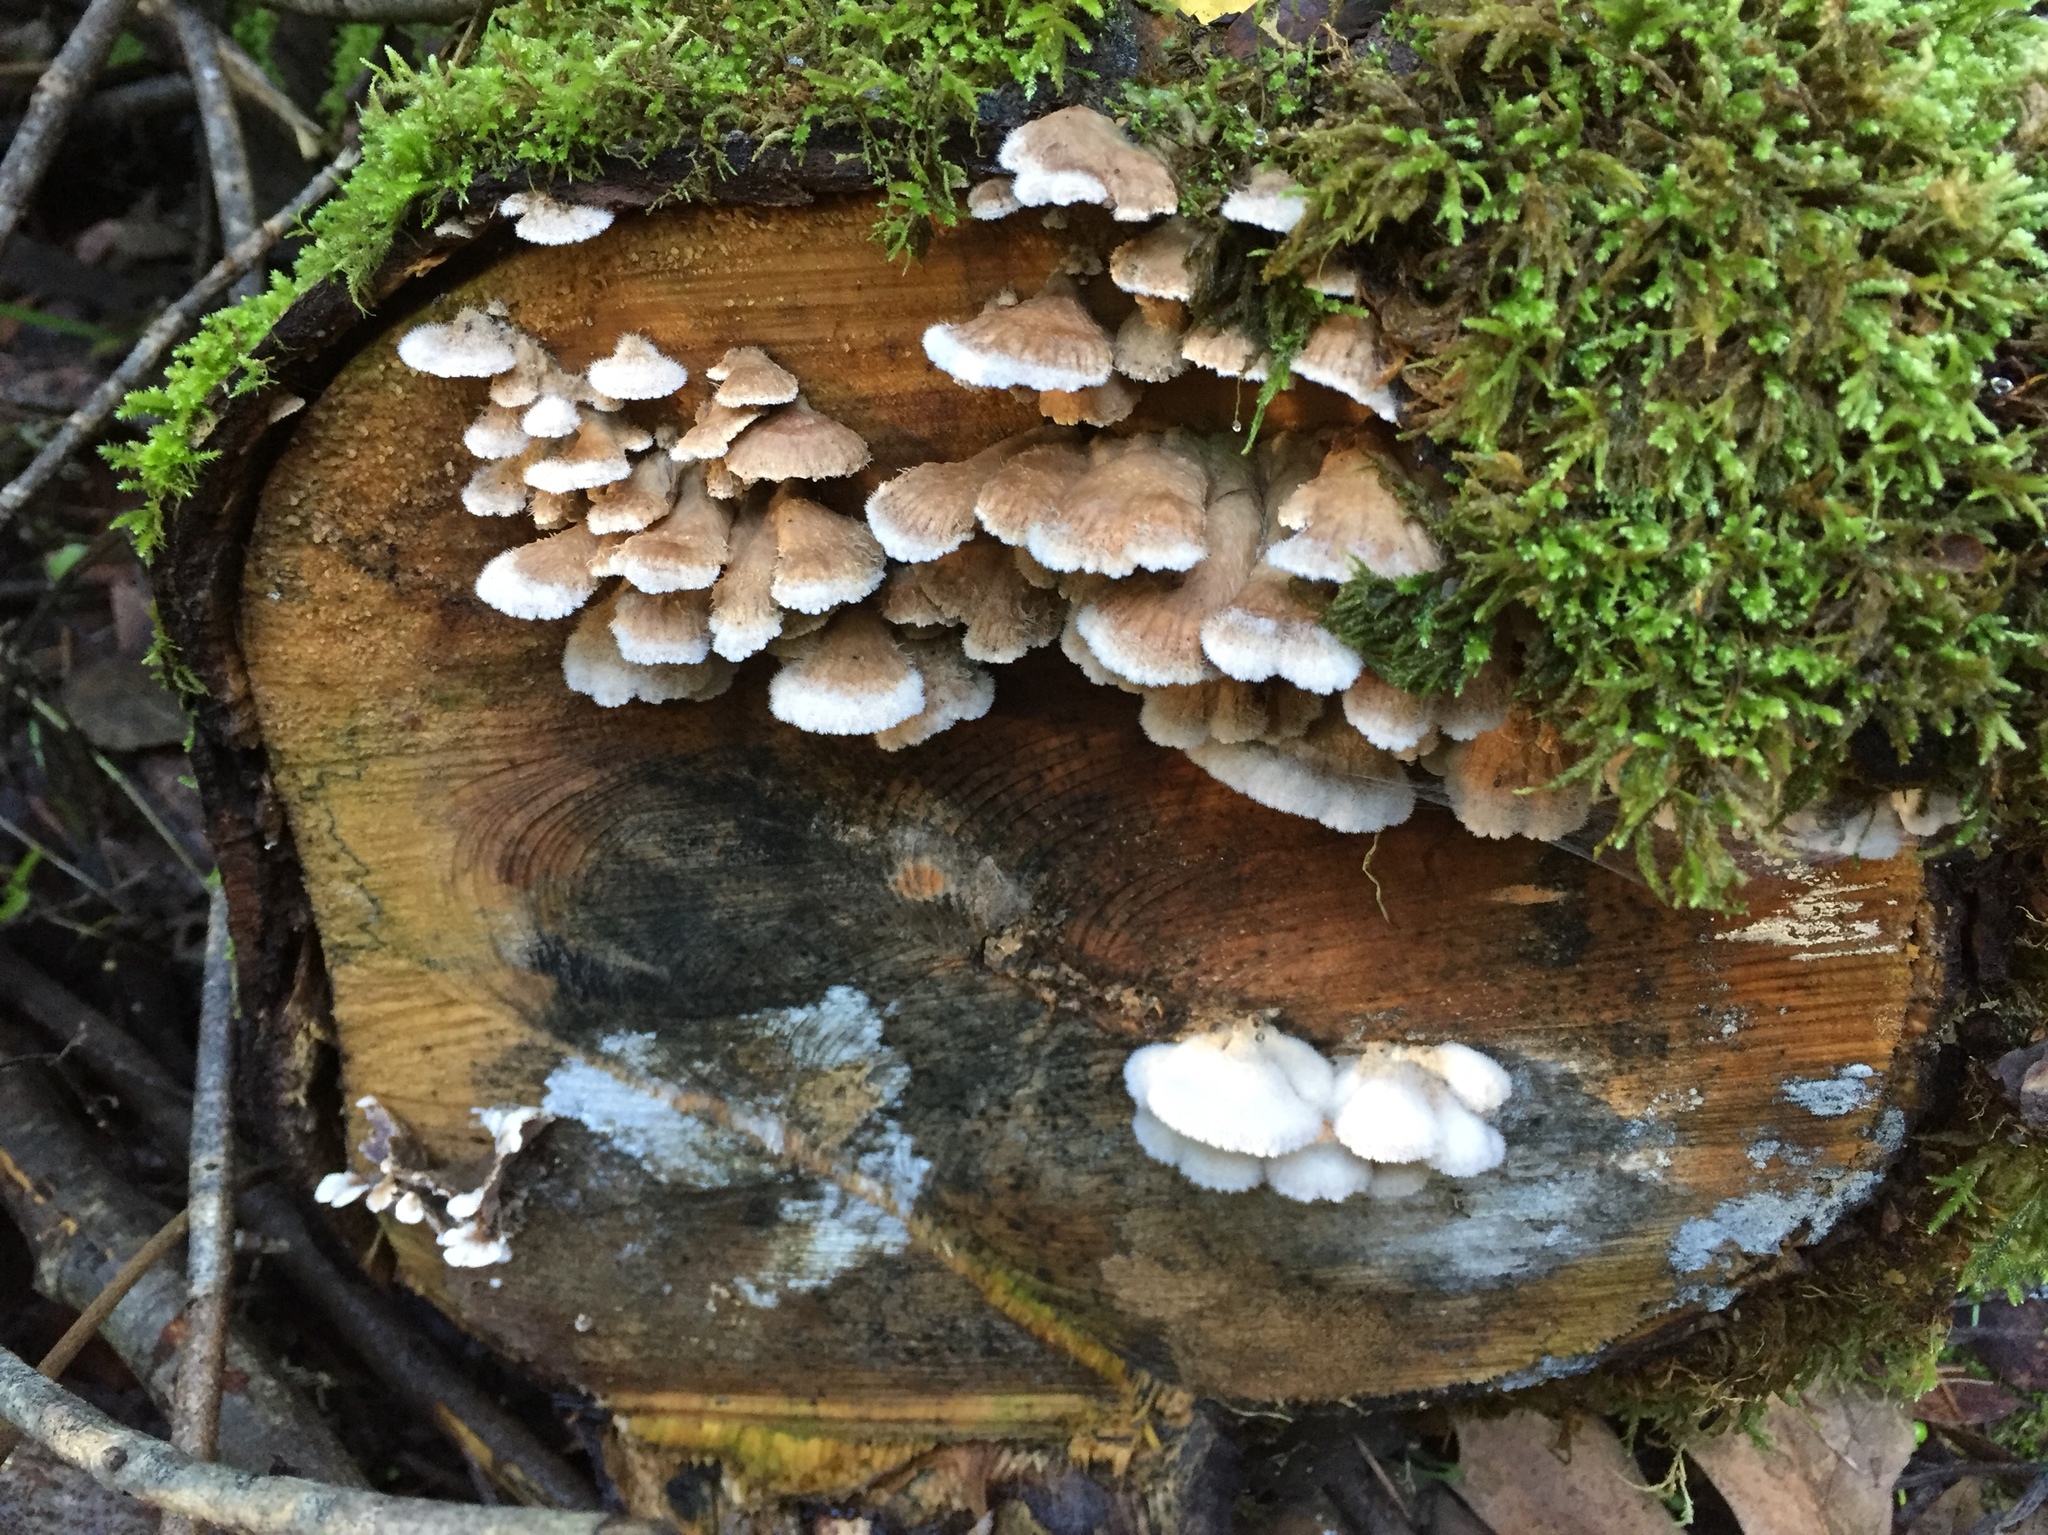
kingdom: Fungi
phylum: Basidiomycota
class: Agaricomycetes
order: Agaricales
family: Schizophyllaceae
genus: Schizophyllum
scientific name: Schizophyllum commune
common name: Common porecrust
